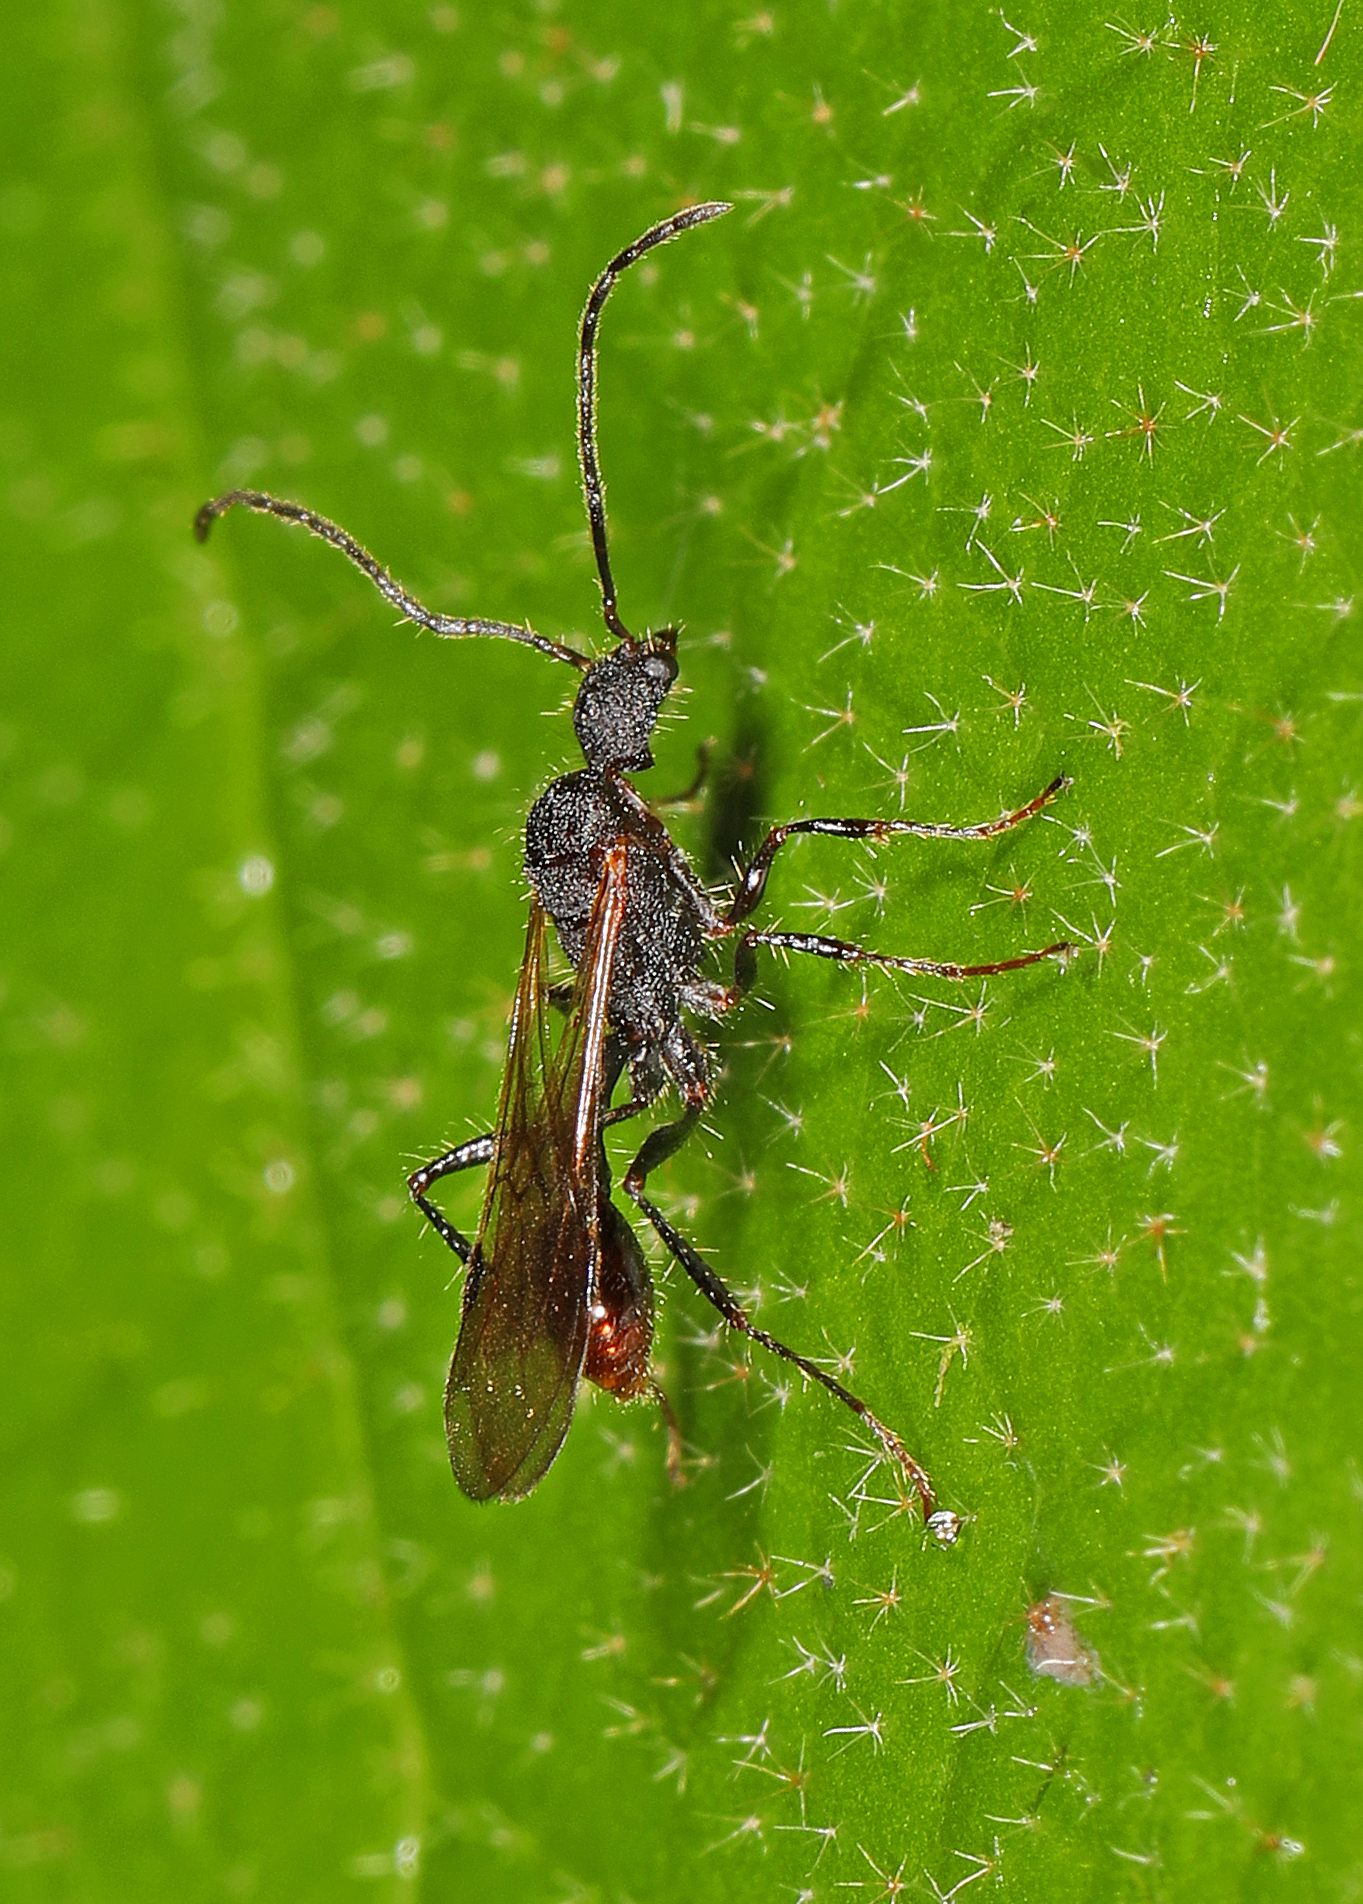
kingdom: Animalia
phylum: Arthropoda
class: Insecta
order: Hymenoptera
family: Formicidae
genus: Pogonomyrmex
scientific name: Pogonomyrmex striatinodis
